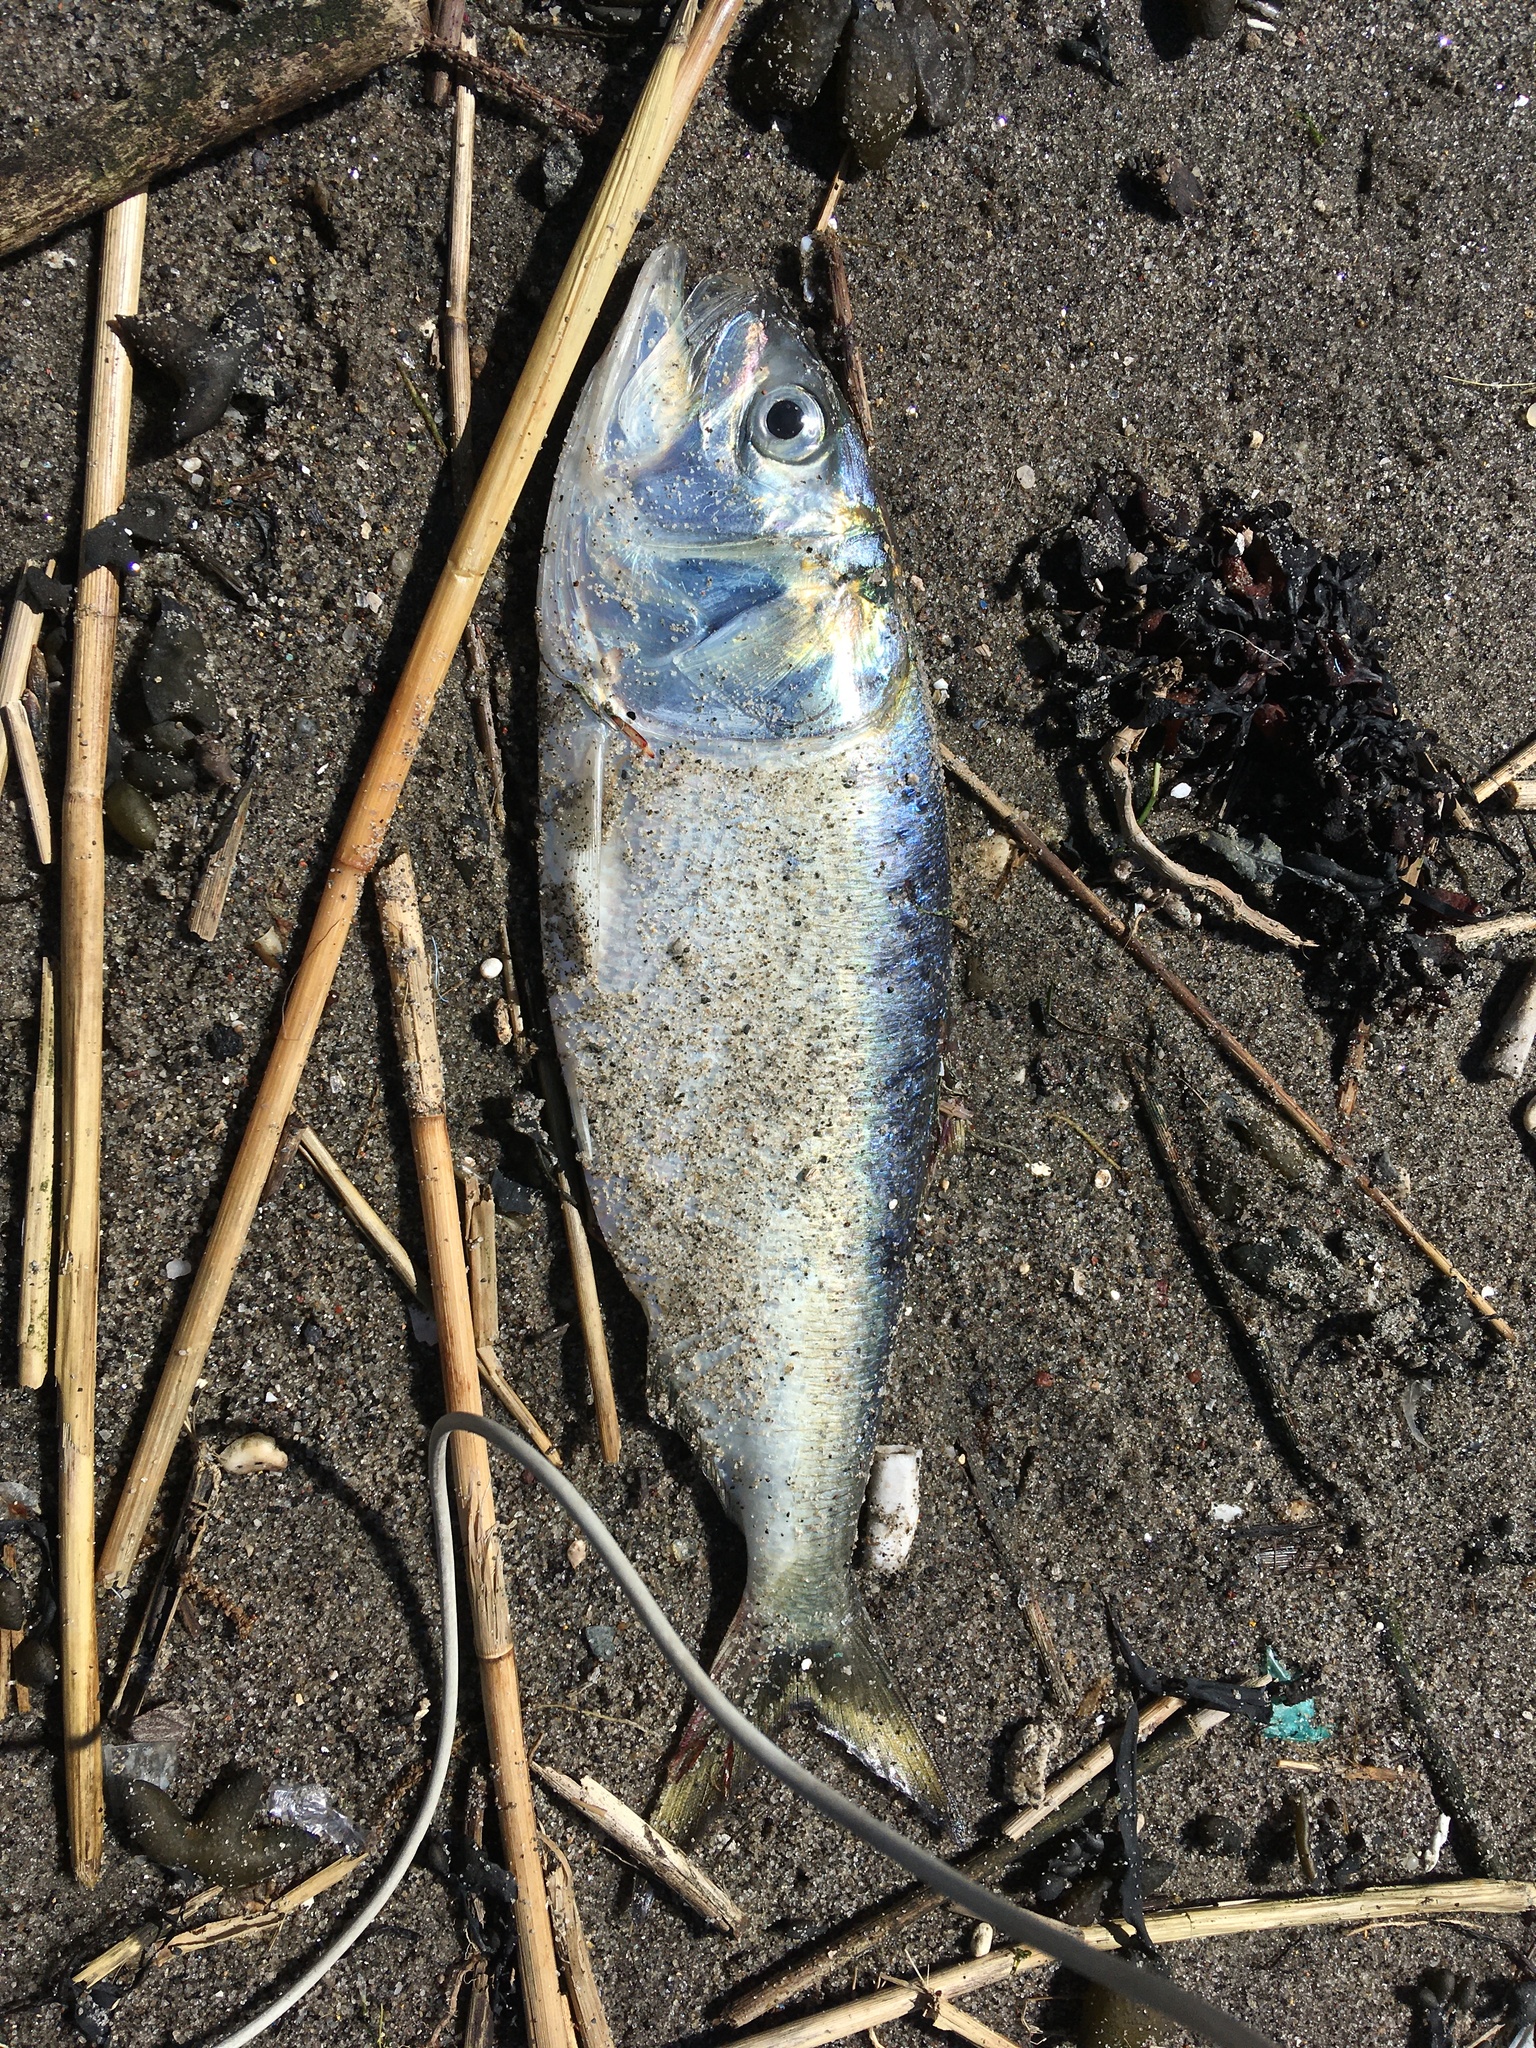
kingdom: Animalia
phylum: Chordata
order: Clupeiformes
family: Clupeidae
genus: Brevoortia
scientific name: Brevoortia tyrannus
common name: Atlantic menhaden
